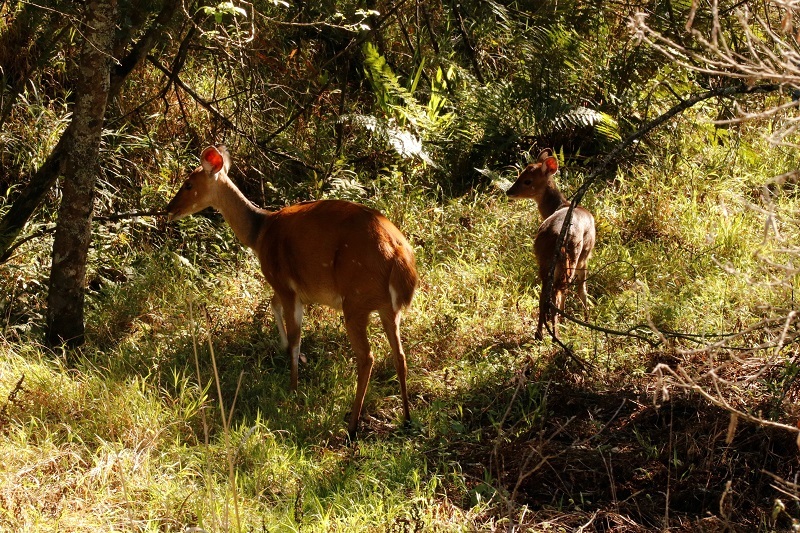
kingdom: Animalia
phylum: Chordata
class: Mammalia
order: Artiodactyla
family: Bovidae
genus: Tragelaphus
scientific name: Tragelaphus scriptus
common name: Bushbuck
